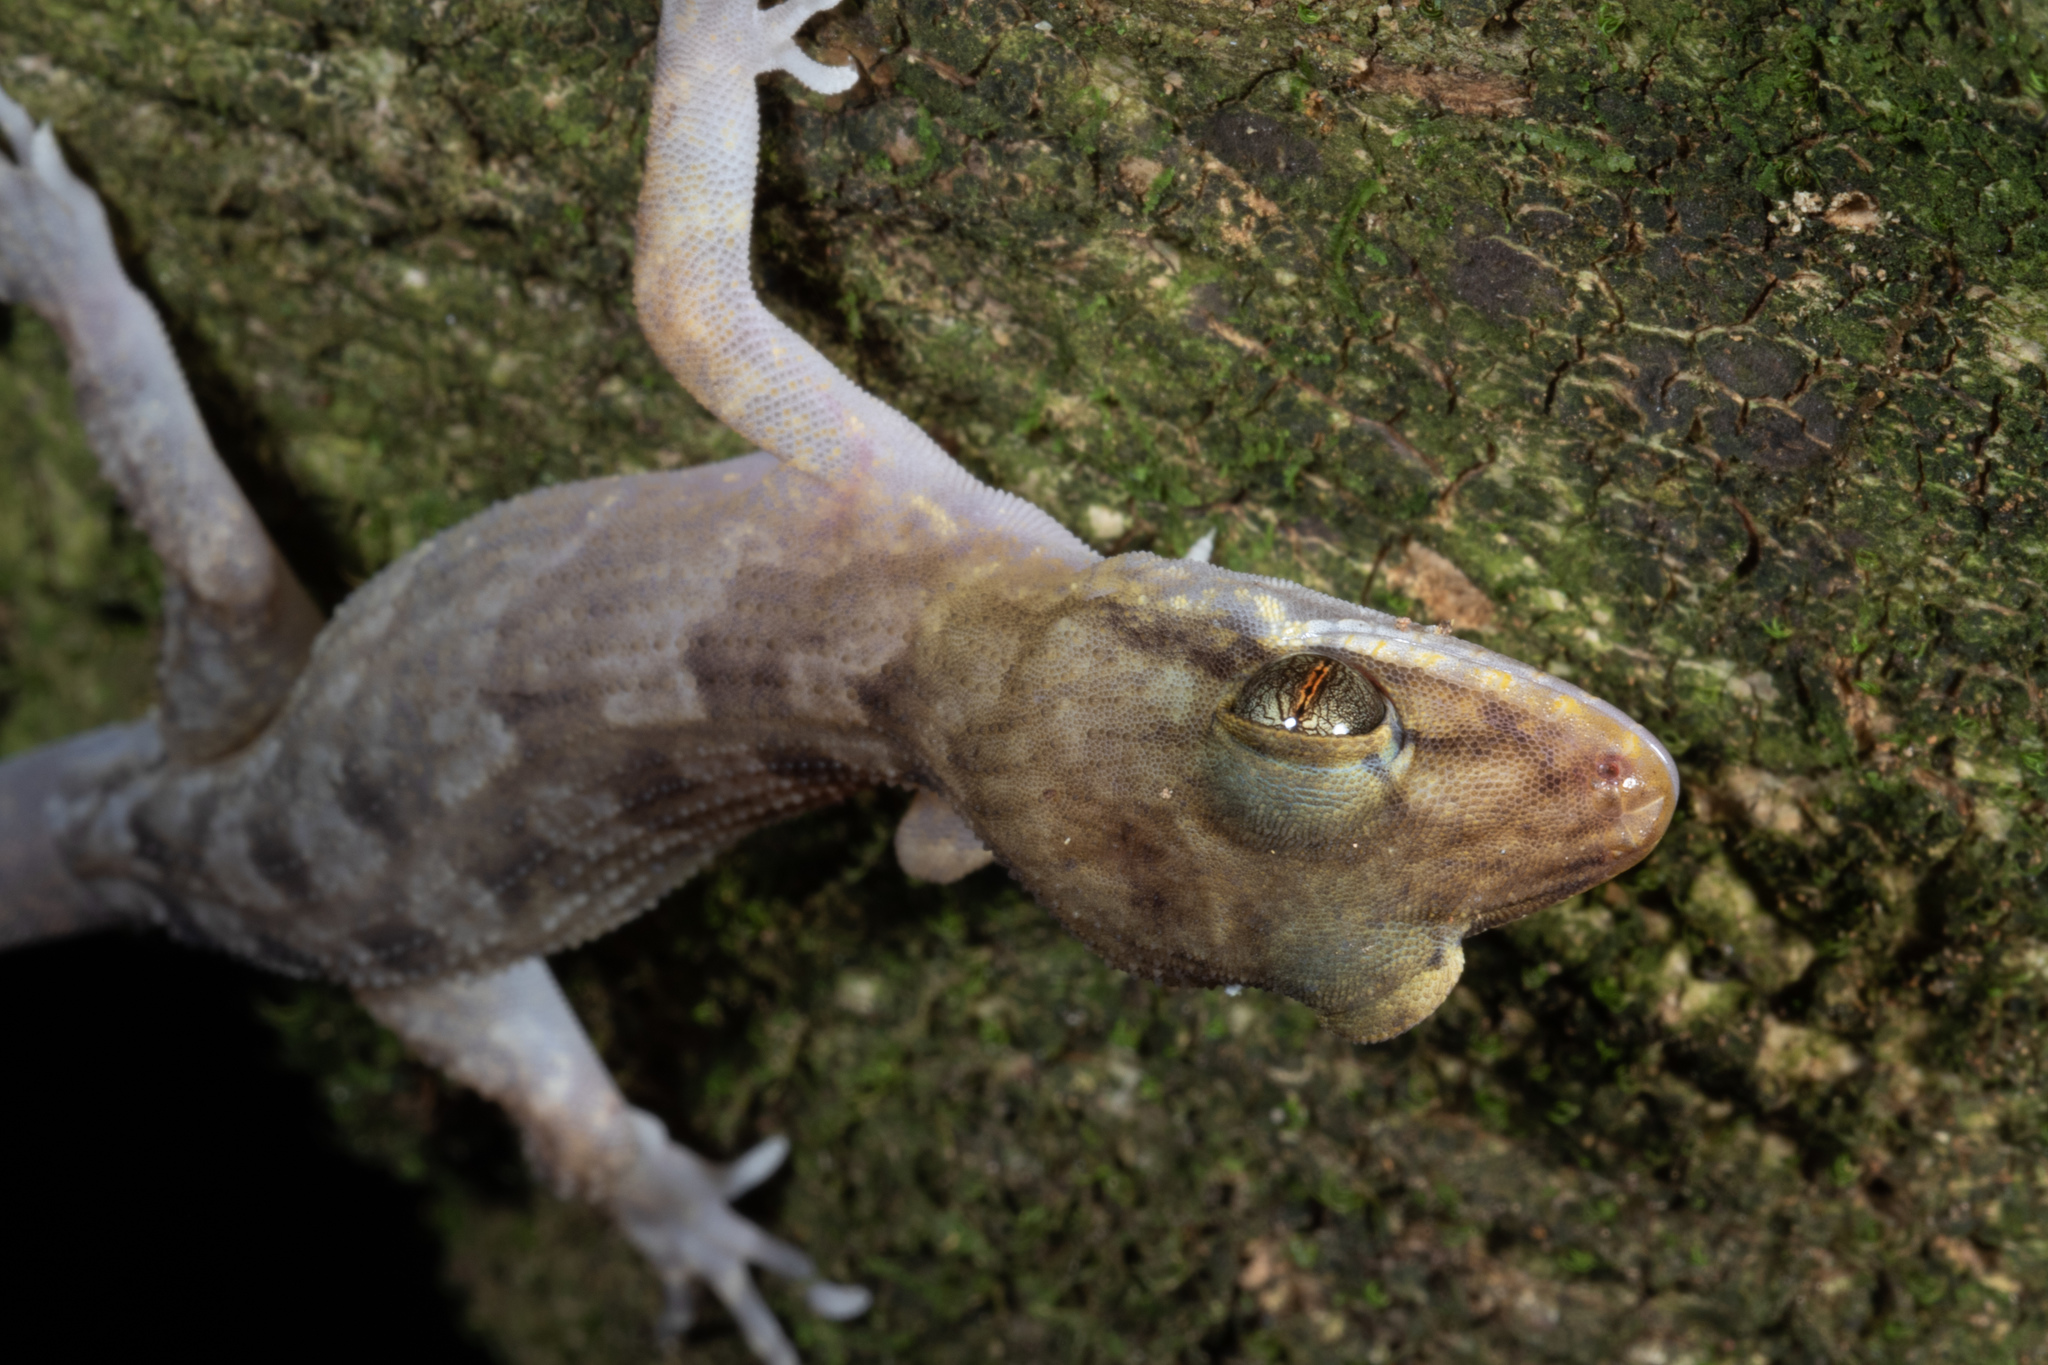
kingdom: Animalia
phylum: Chordata
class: Squamata
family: Gekkonidae
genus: Nactus
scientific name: Nactus pelagicus
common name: Pelagic gecko
